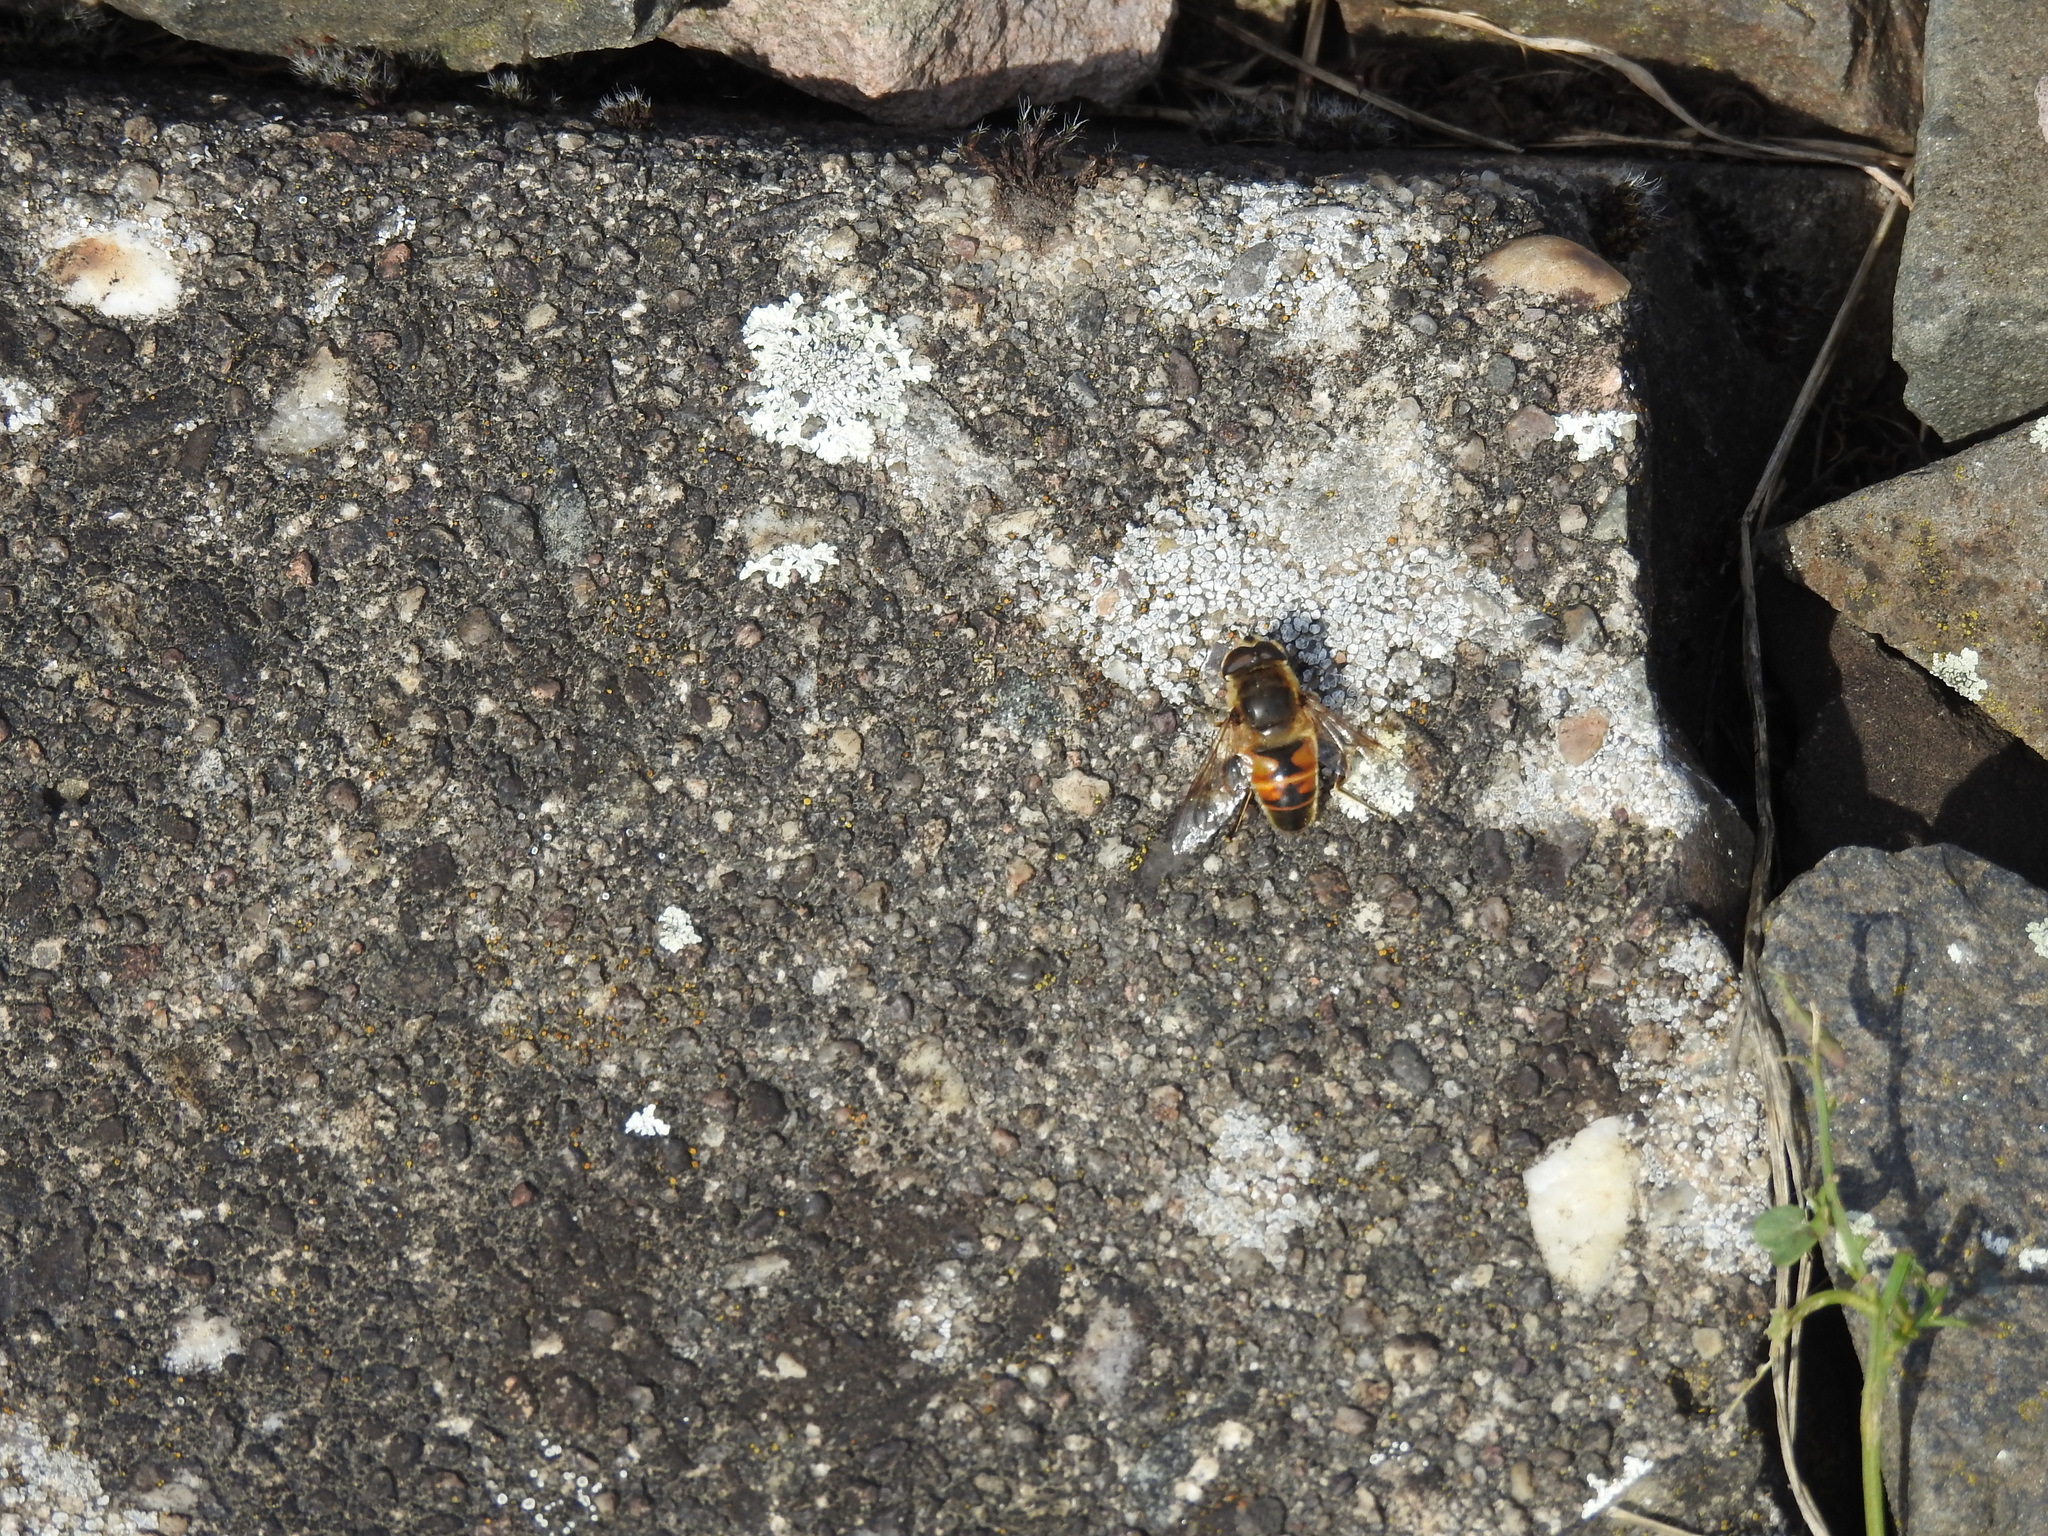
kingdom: Animalia
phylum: Arthropoda
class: Insecta
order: Diptera
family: Syrphidae
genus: Eristalis
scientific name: Eristalis tenax
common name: Drone fly
